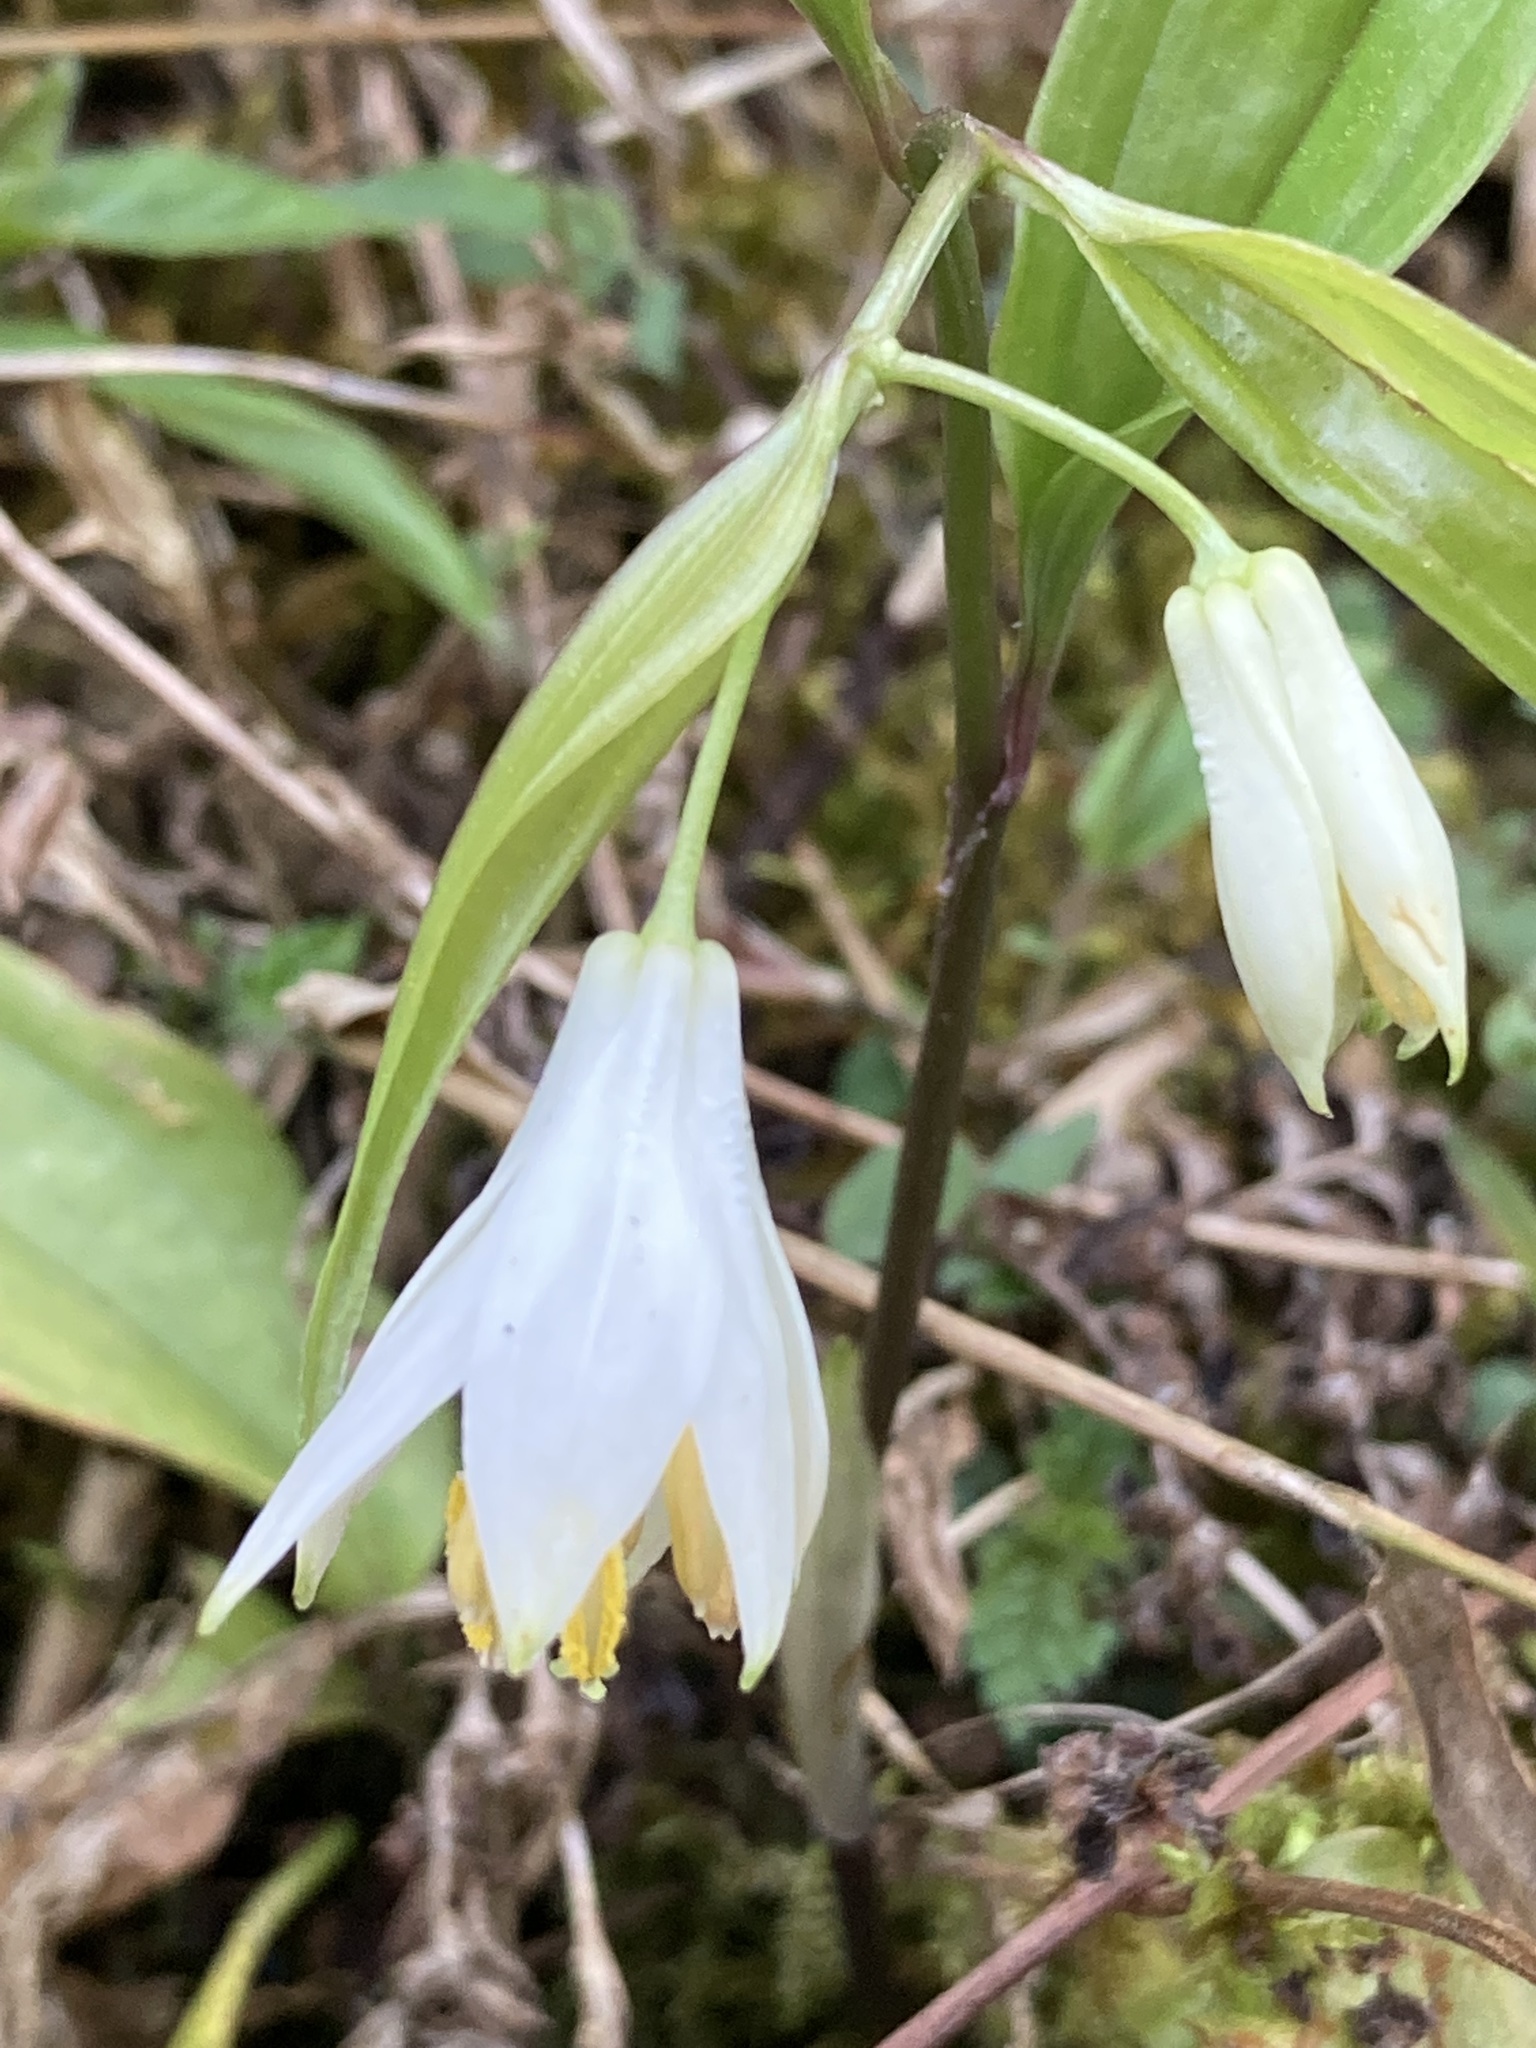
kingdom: Plantae
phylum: Tracheophyta
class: Liliopsida
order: Liliales
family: Colchicaceae
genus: Disporum
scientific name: Disporum leucanthum
